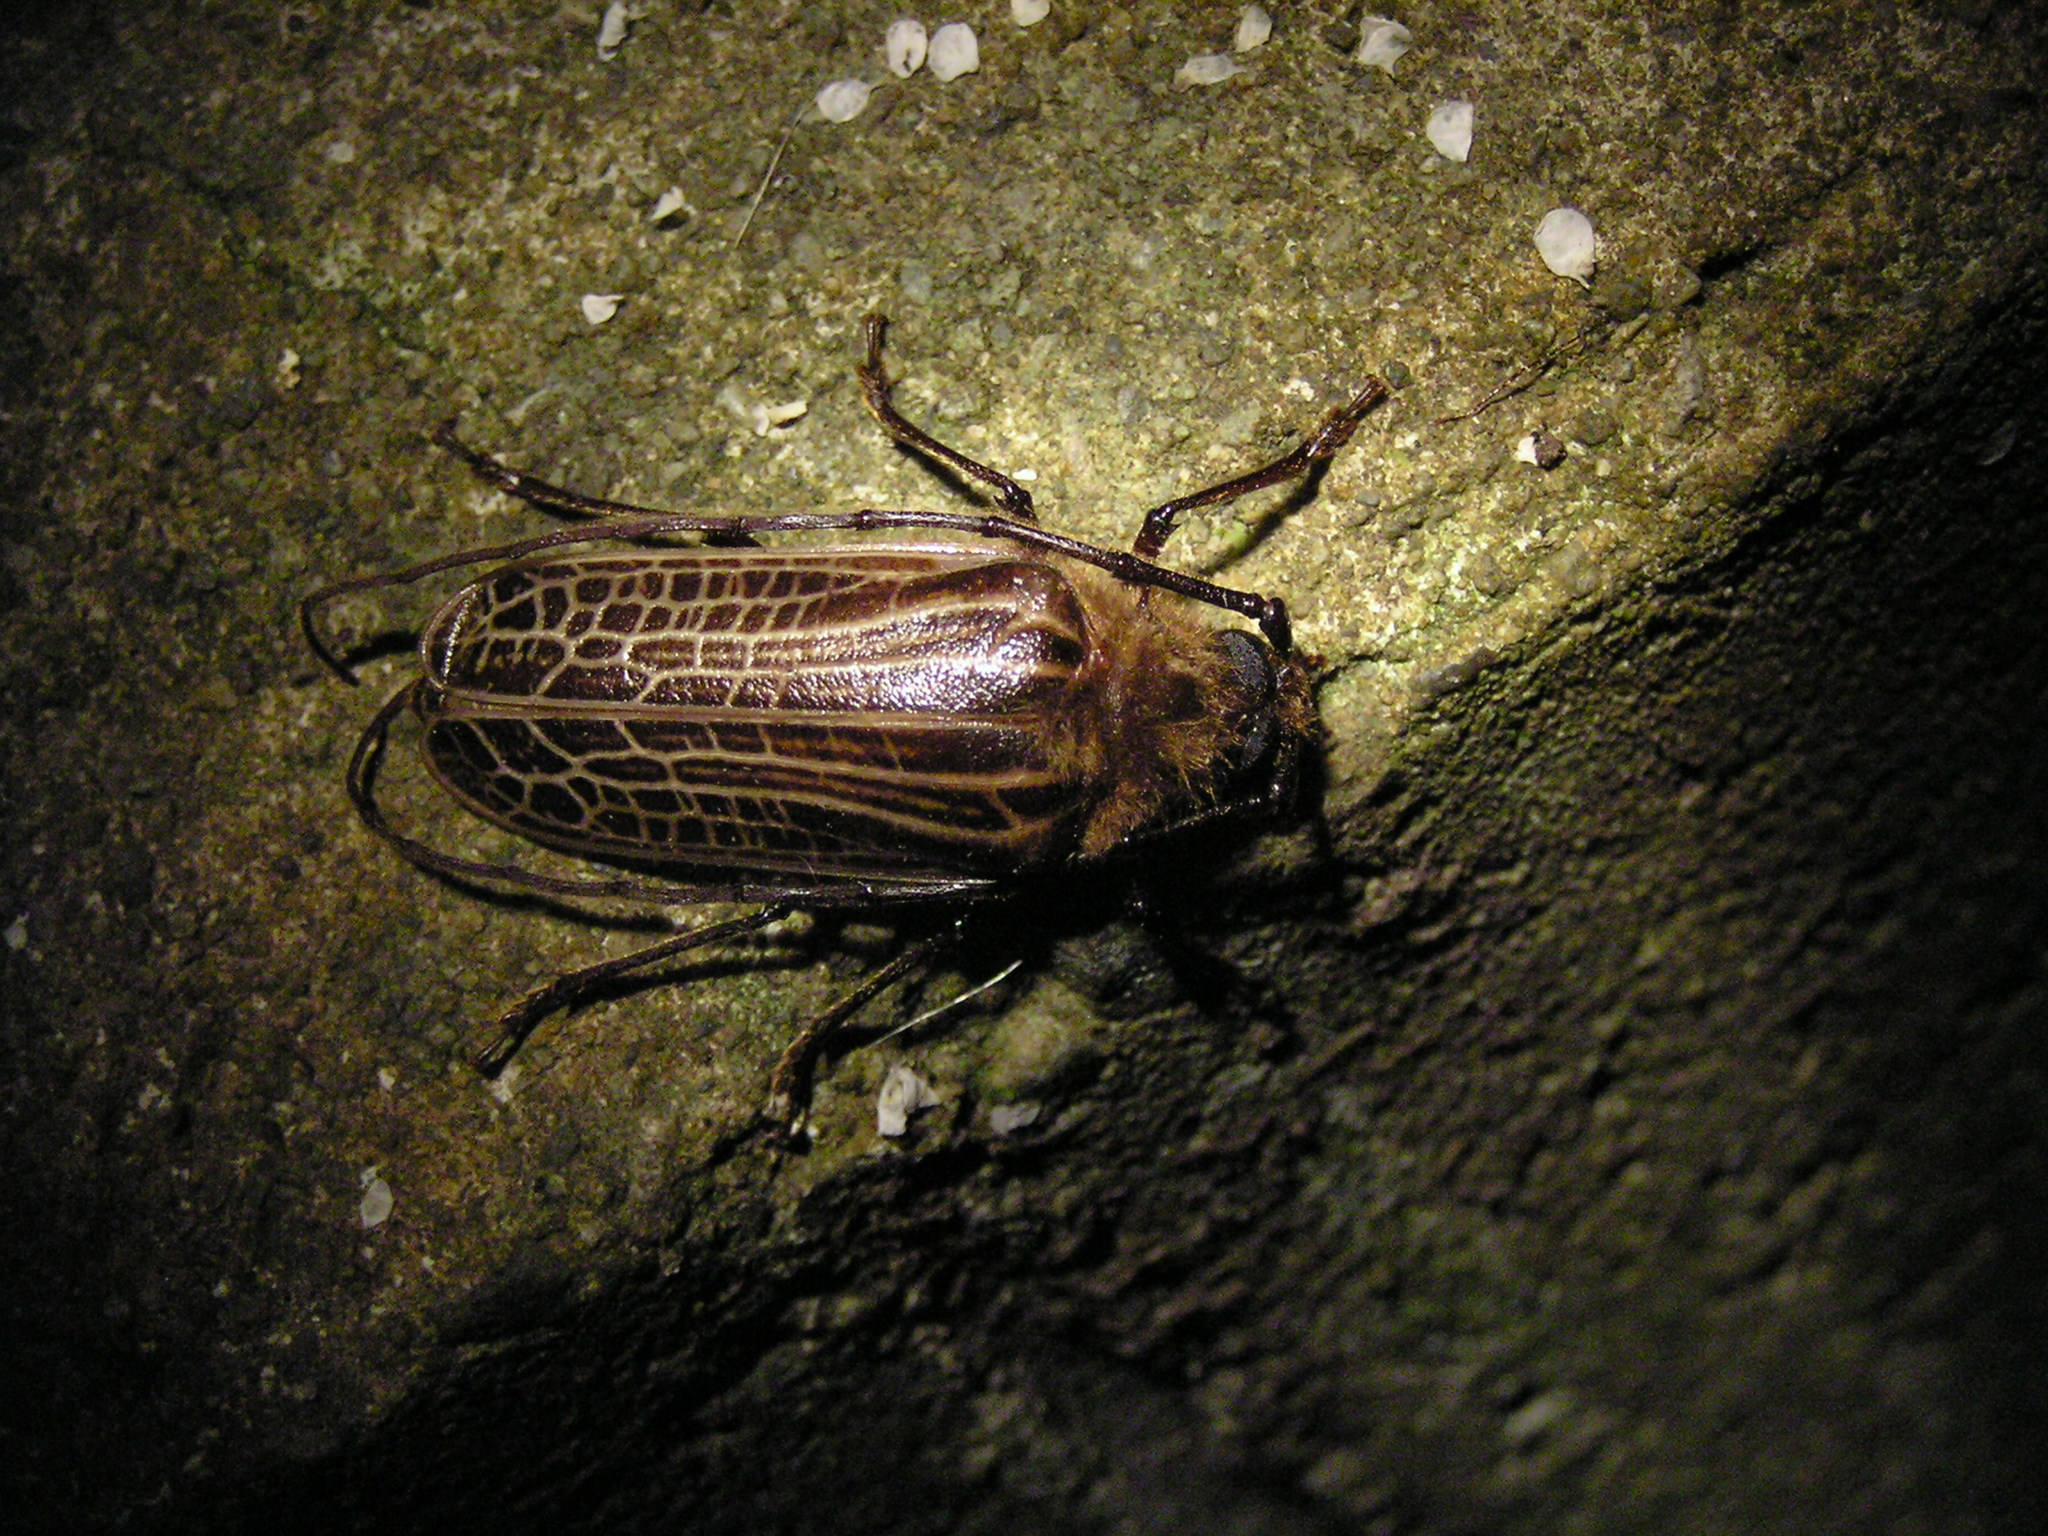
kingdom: Animalia
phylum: Arthropoda
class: Insecta
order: Coleoptera
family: Cerambycidae
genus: Prionoplus
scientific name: Prionoplus reticularis
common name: Huhu beetle
